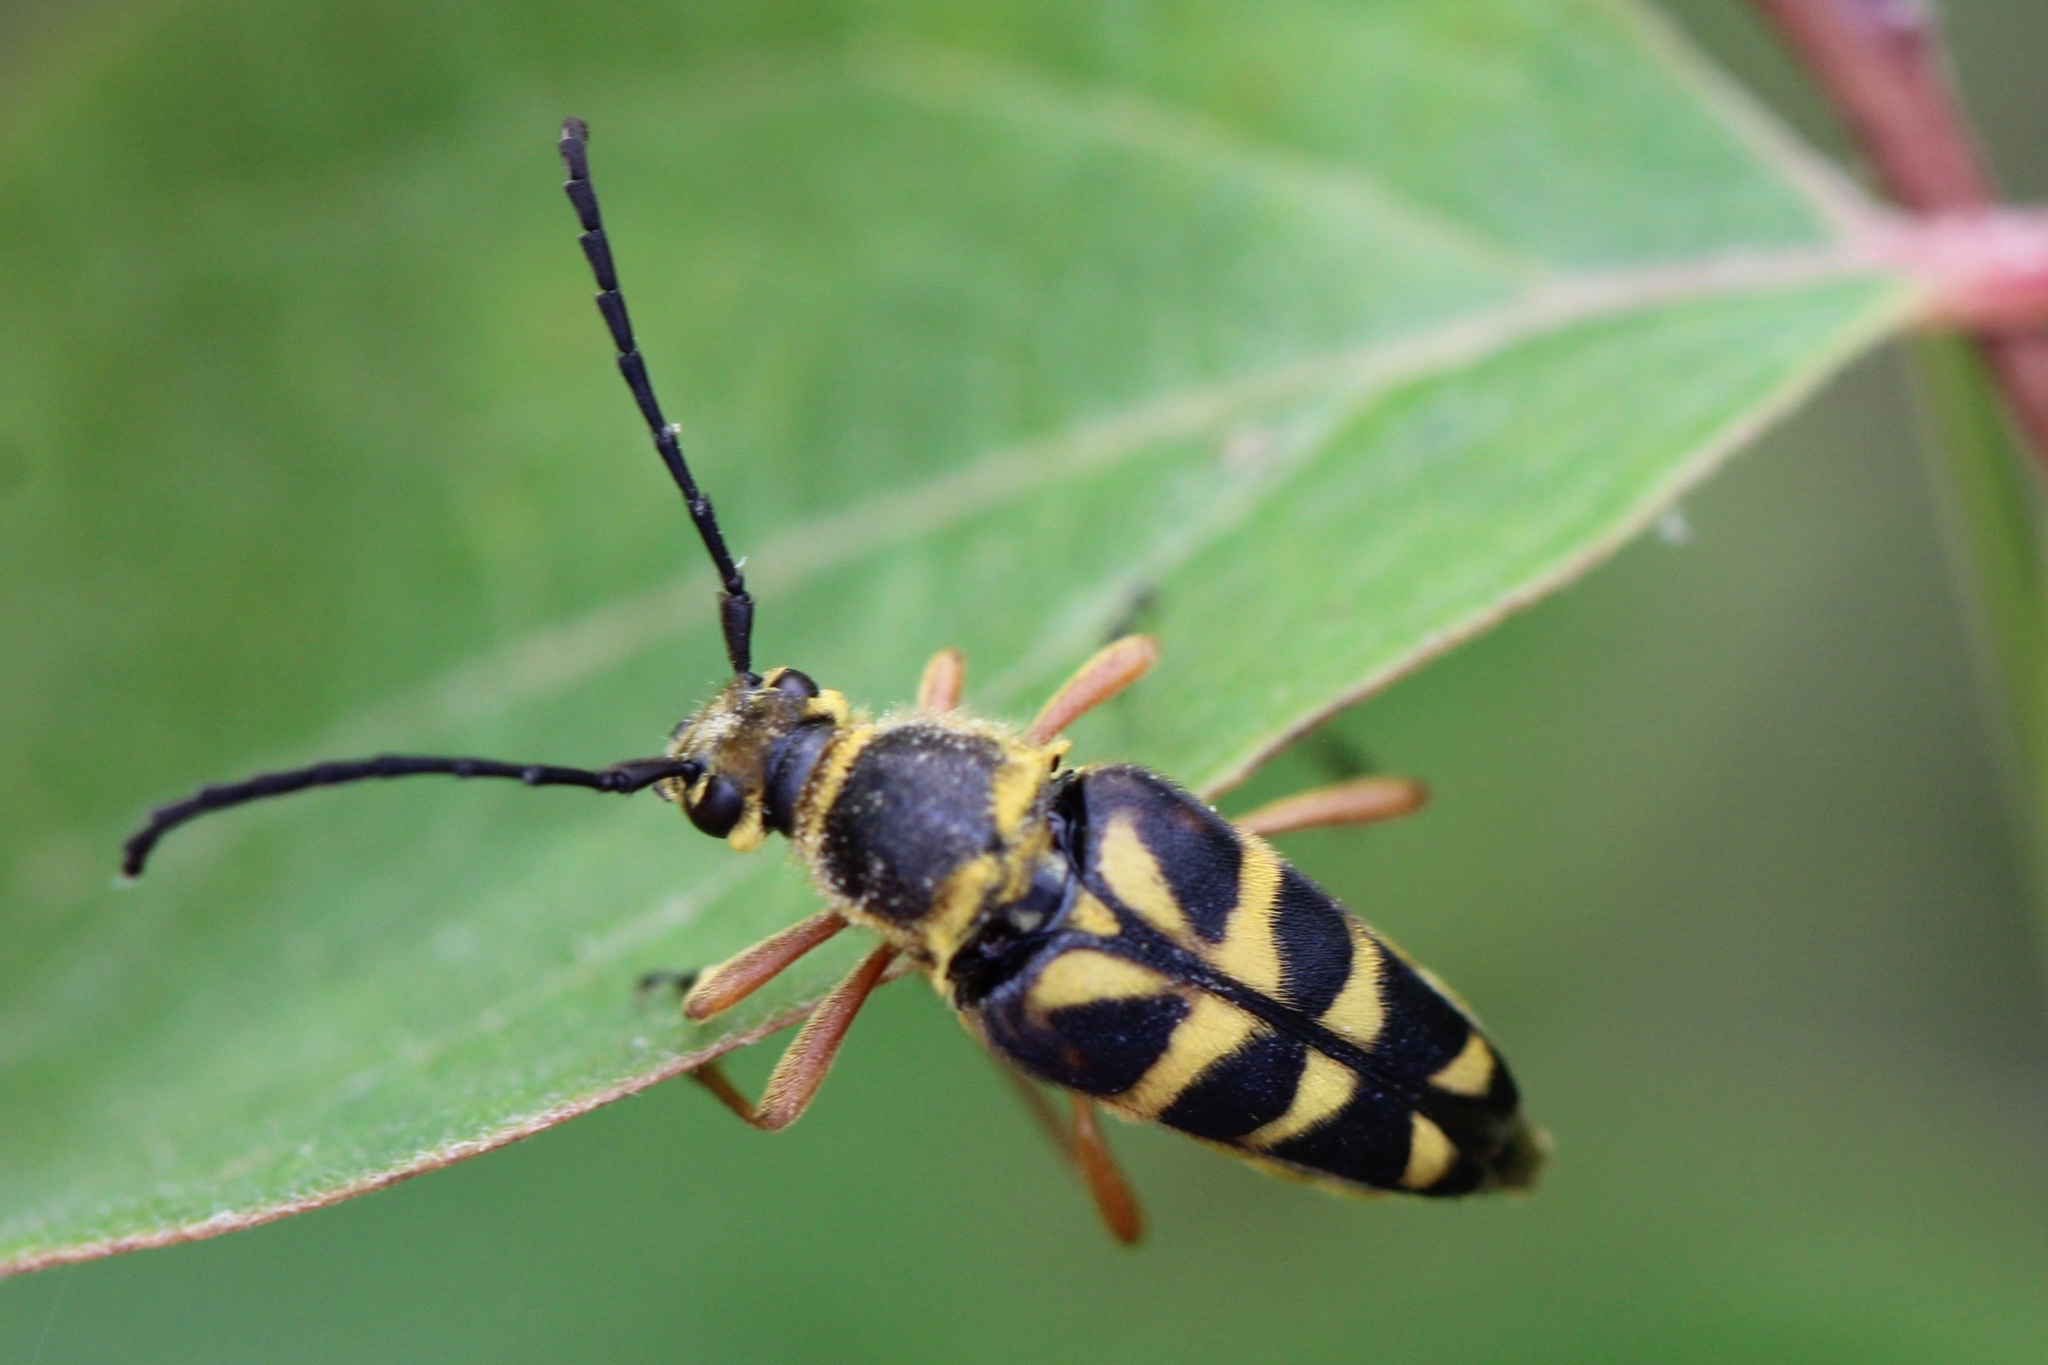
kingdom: Animalia
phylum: Arthropoda
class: Insecta
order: Coleoptera
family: Cerambycidae
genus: Typocerus
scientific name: Typocerus zebra
